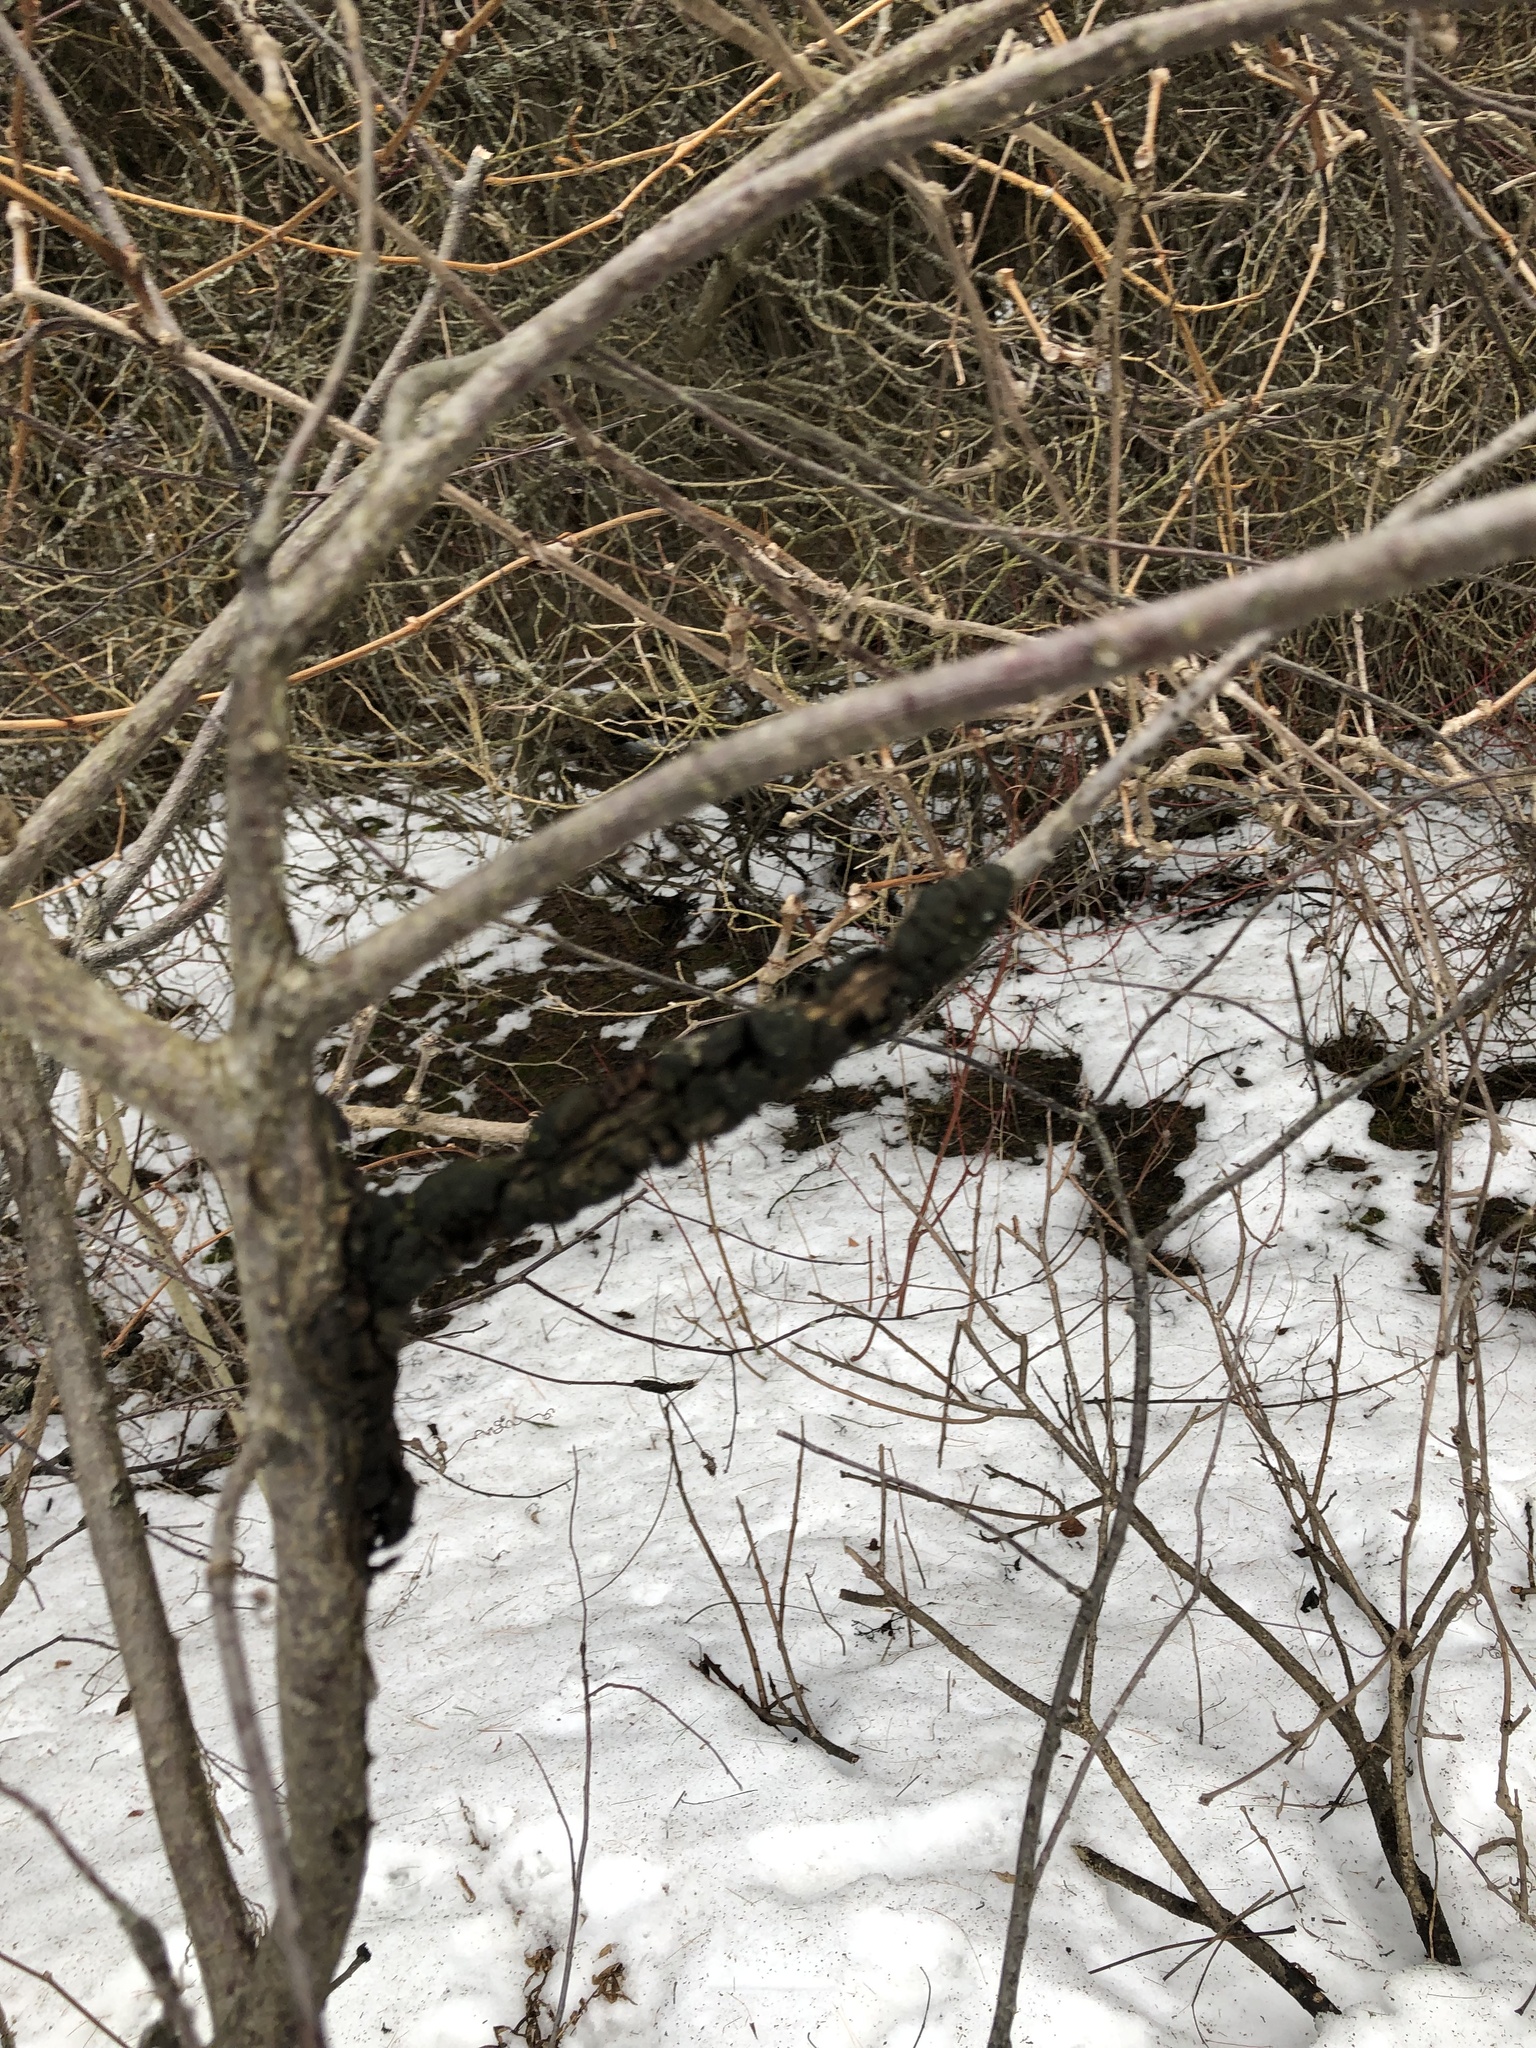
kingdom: Fungi
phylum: Ascomycota
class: Dothideomycetes
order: Venturiales
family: Venturiaceae
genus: Apiosporina
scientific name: Apiosporina morbosa
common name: Black knot
